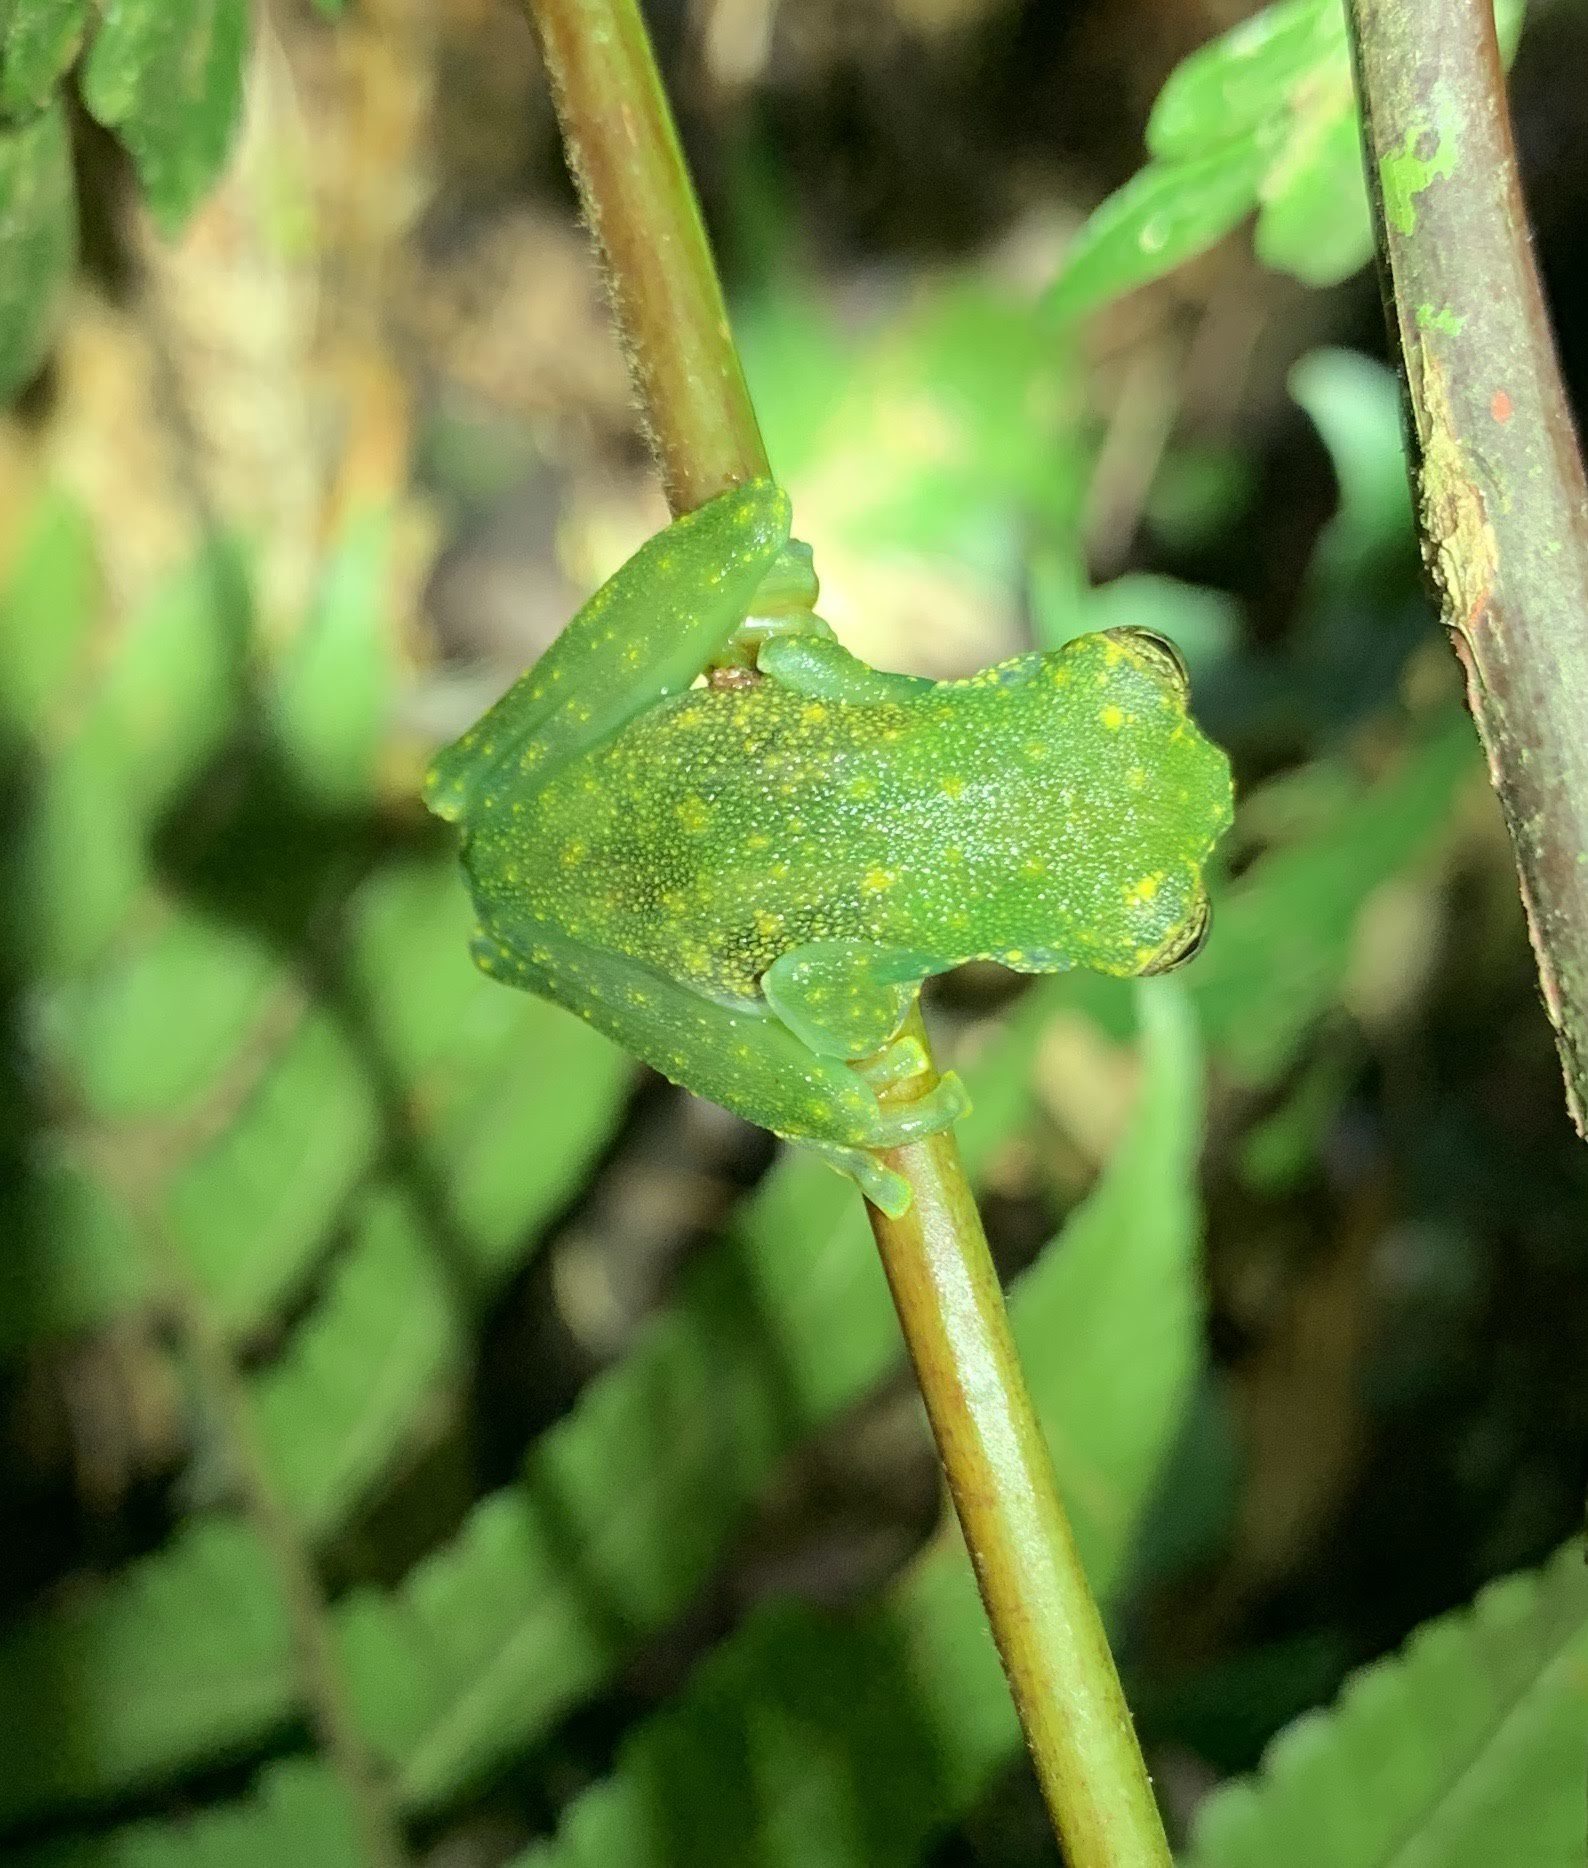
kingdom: Animalia
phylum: Chordata
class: Amphibia
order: Anura
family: Centrolenidae
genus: Sachatamia
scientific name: Sachatamia albomaculata
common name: Rana de cristal de cascada
